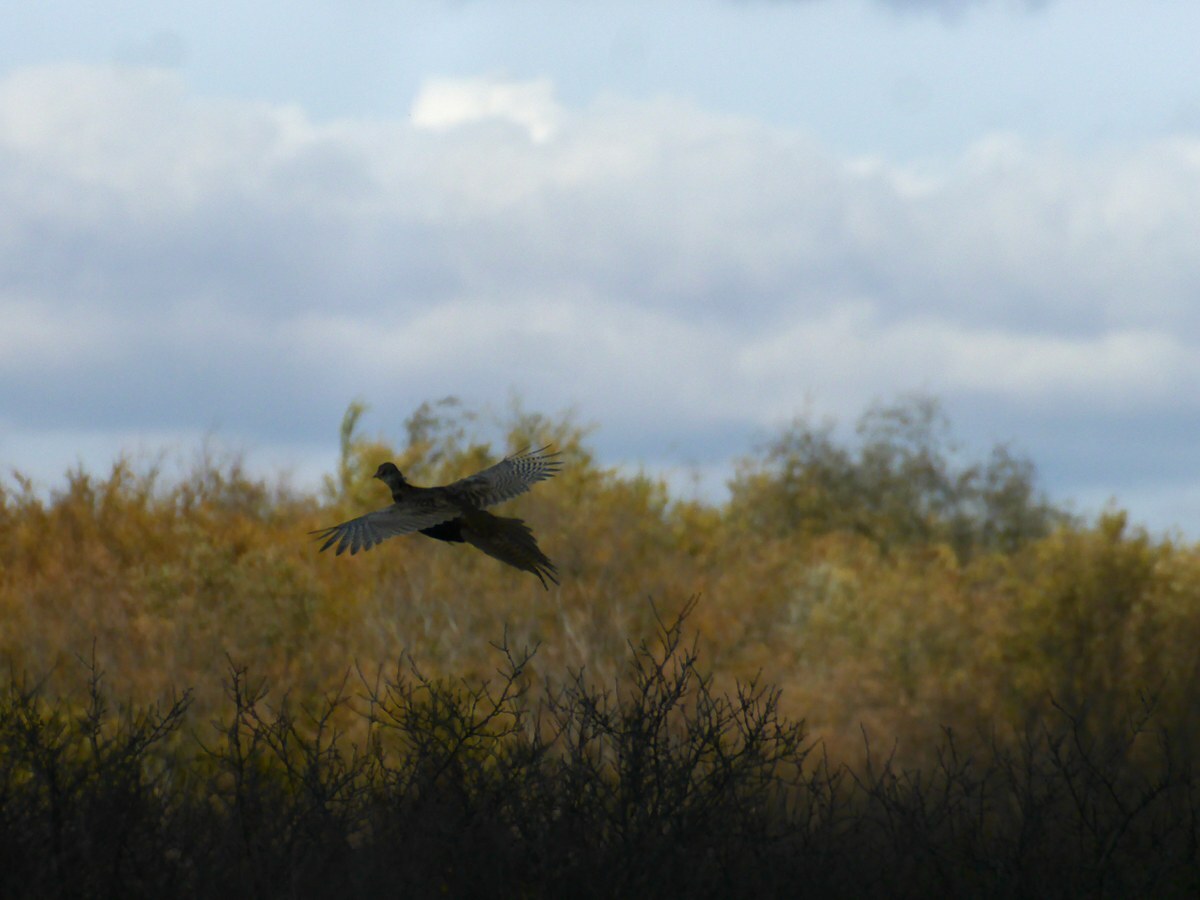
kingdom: Animalia
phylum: Chordata
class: Aves
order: Galliformes
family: Phasianidae
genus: Phasianus
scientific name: Phasianus colchicus
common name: Common pheasant
